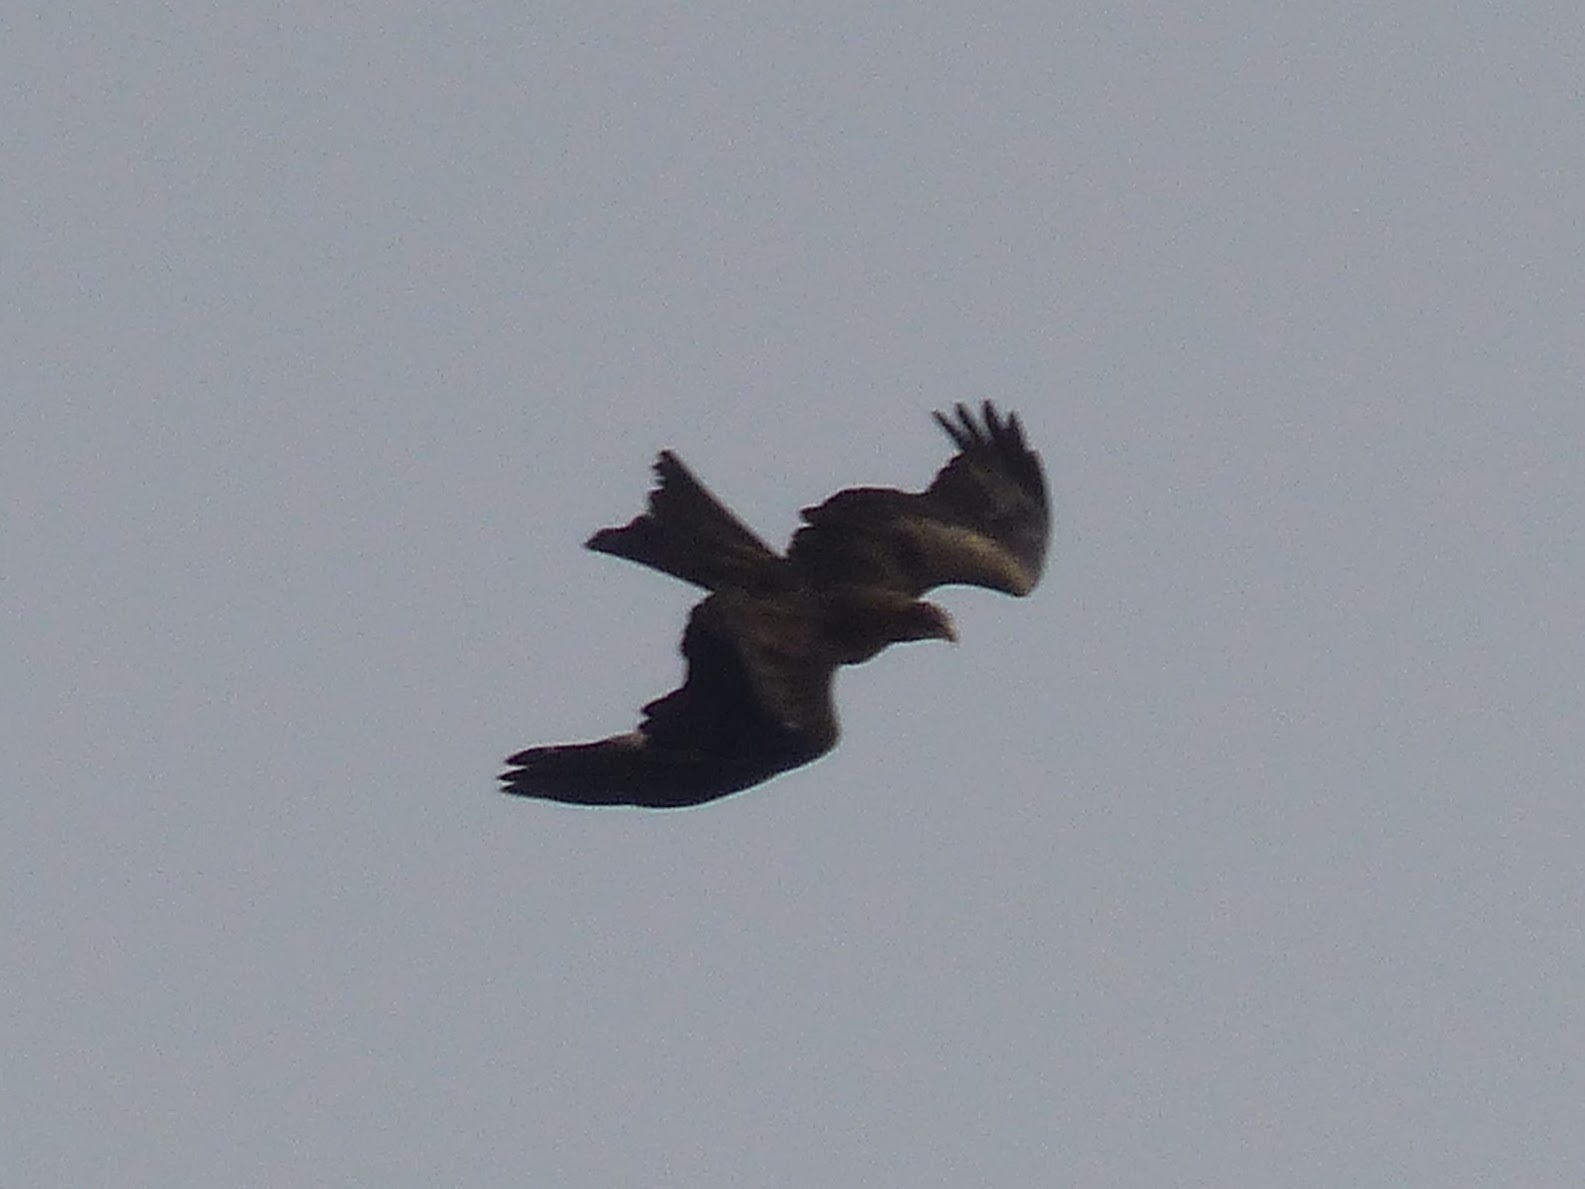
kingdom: Animalia
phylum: Chordata
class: Aves
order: Accipitriformes
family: Accipitridae
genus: Milvus
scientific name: Milvus migrans
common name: Black kite
